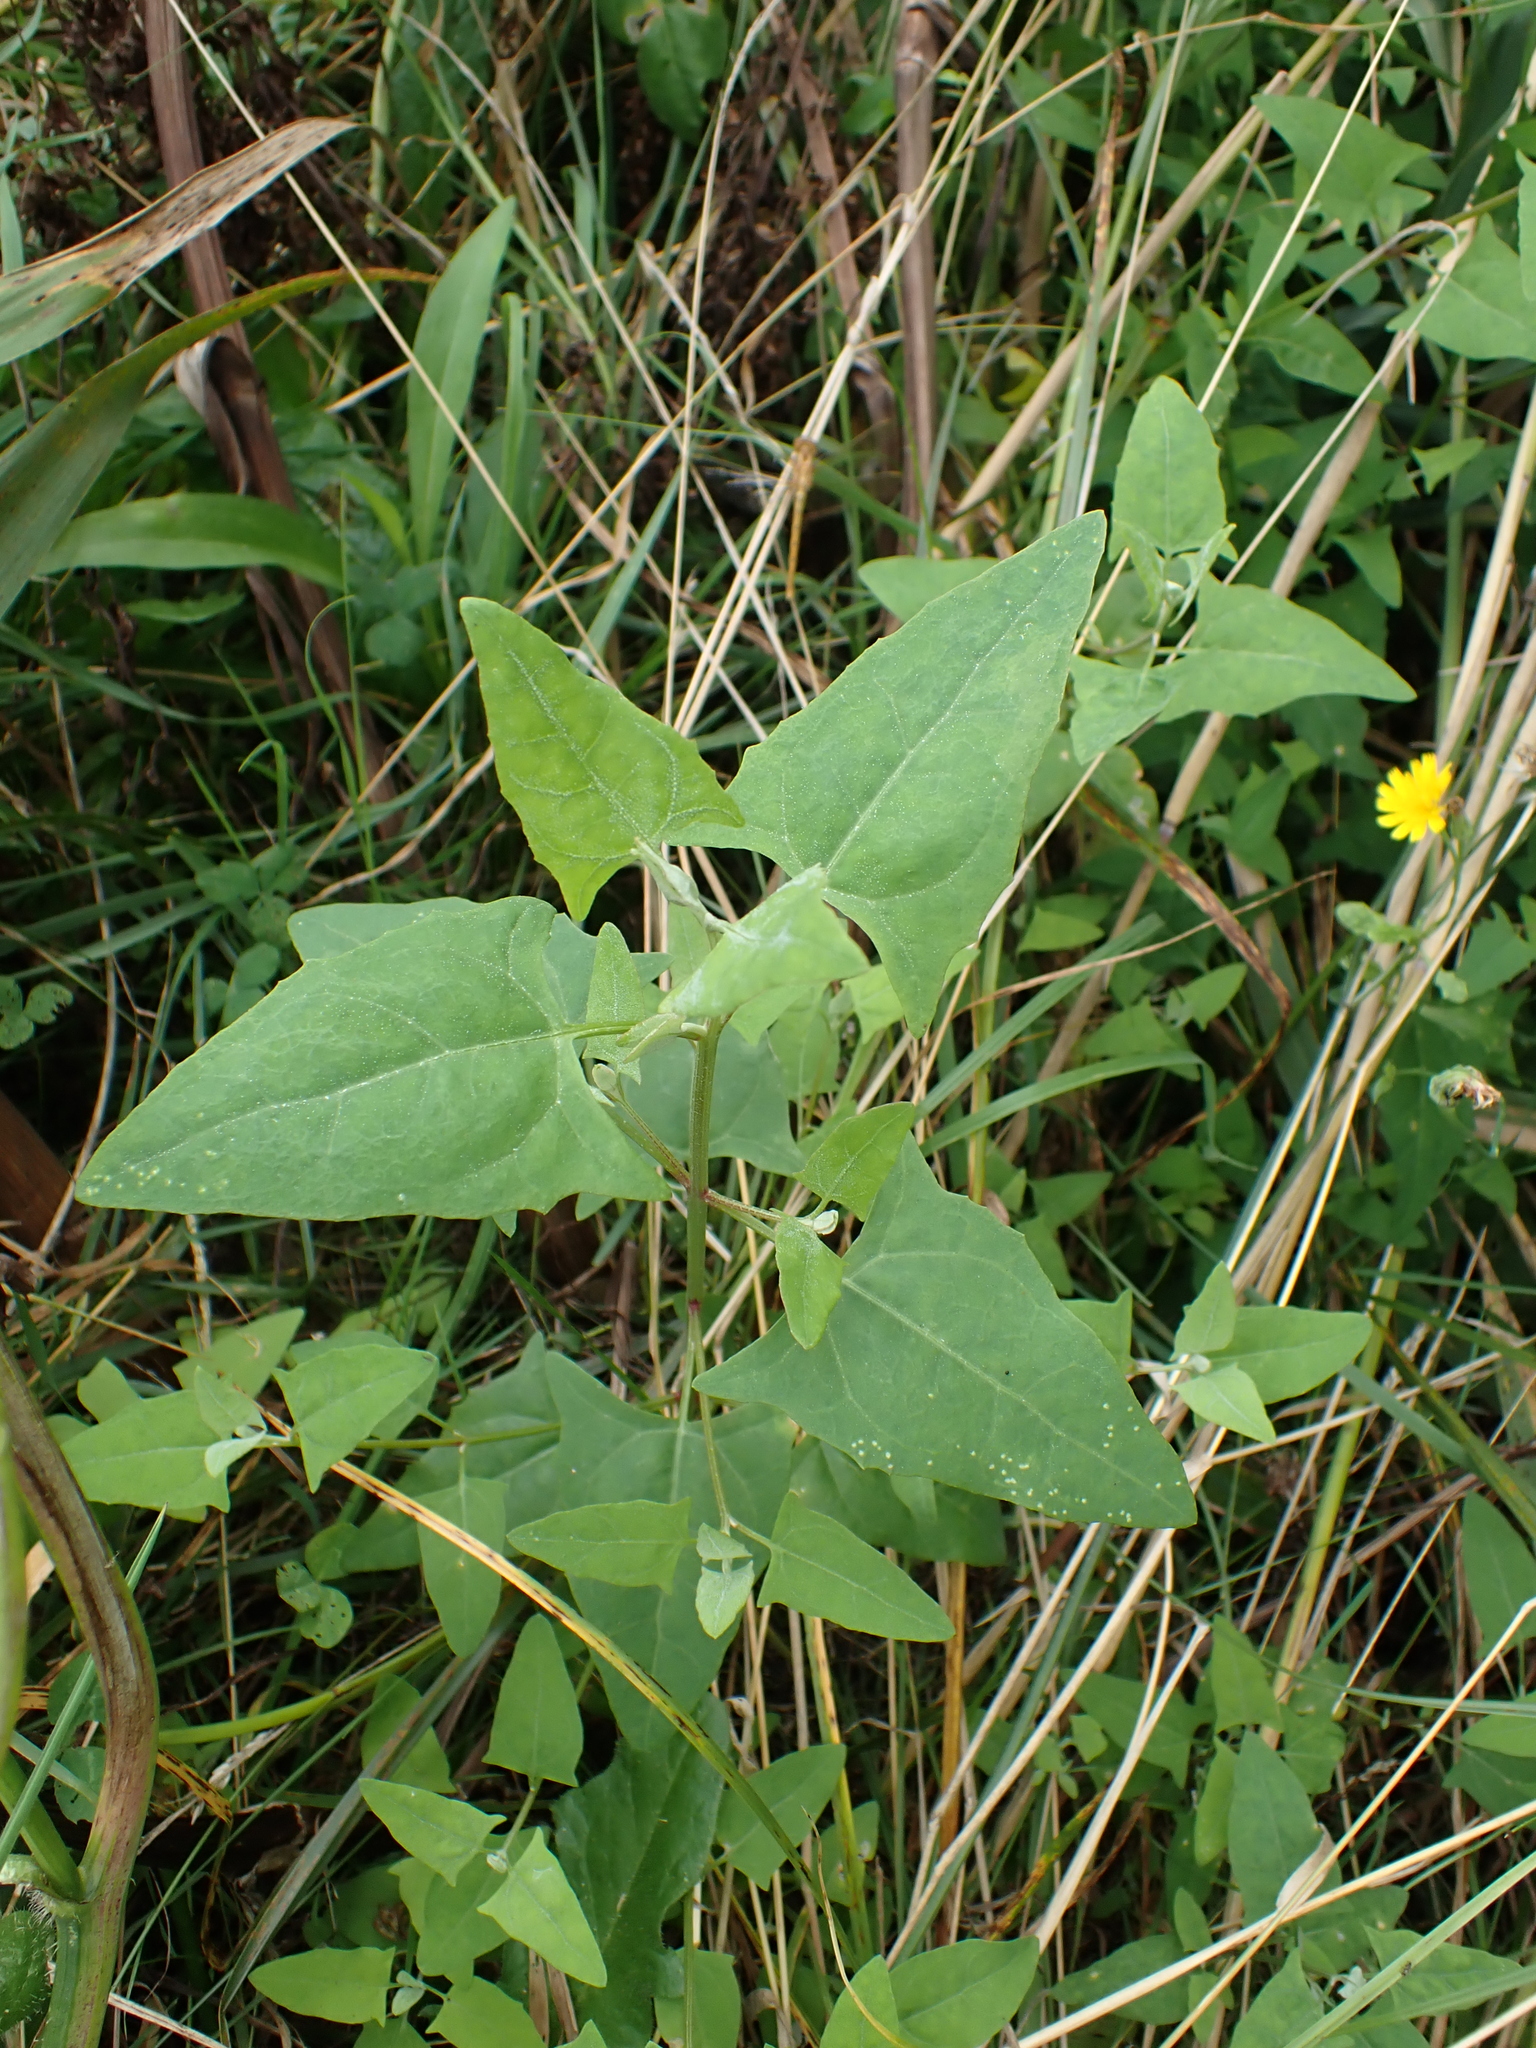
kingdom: Plantae
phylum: Tracheophyta
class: Magnoliopsida
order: Caryophyllales
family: Amaranthaceae
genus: Atriplex
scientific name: Atriplex prostrata
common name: Spear-leaved orache
